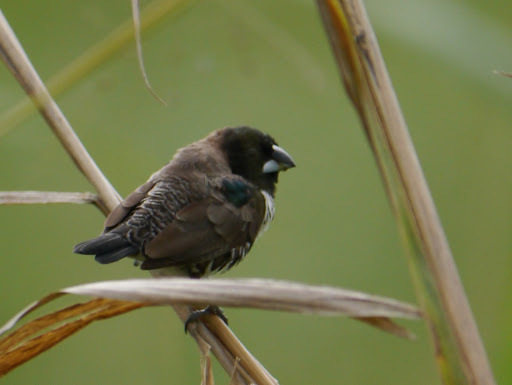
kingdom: Animalia
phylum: Chordata
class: Aves
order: Passeriformes
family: Estrildidae
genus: Lonchura
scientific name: Lonchura cucullata
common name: Bronze mannikin
